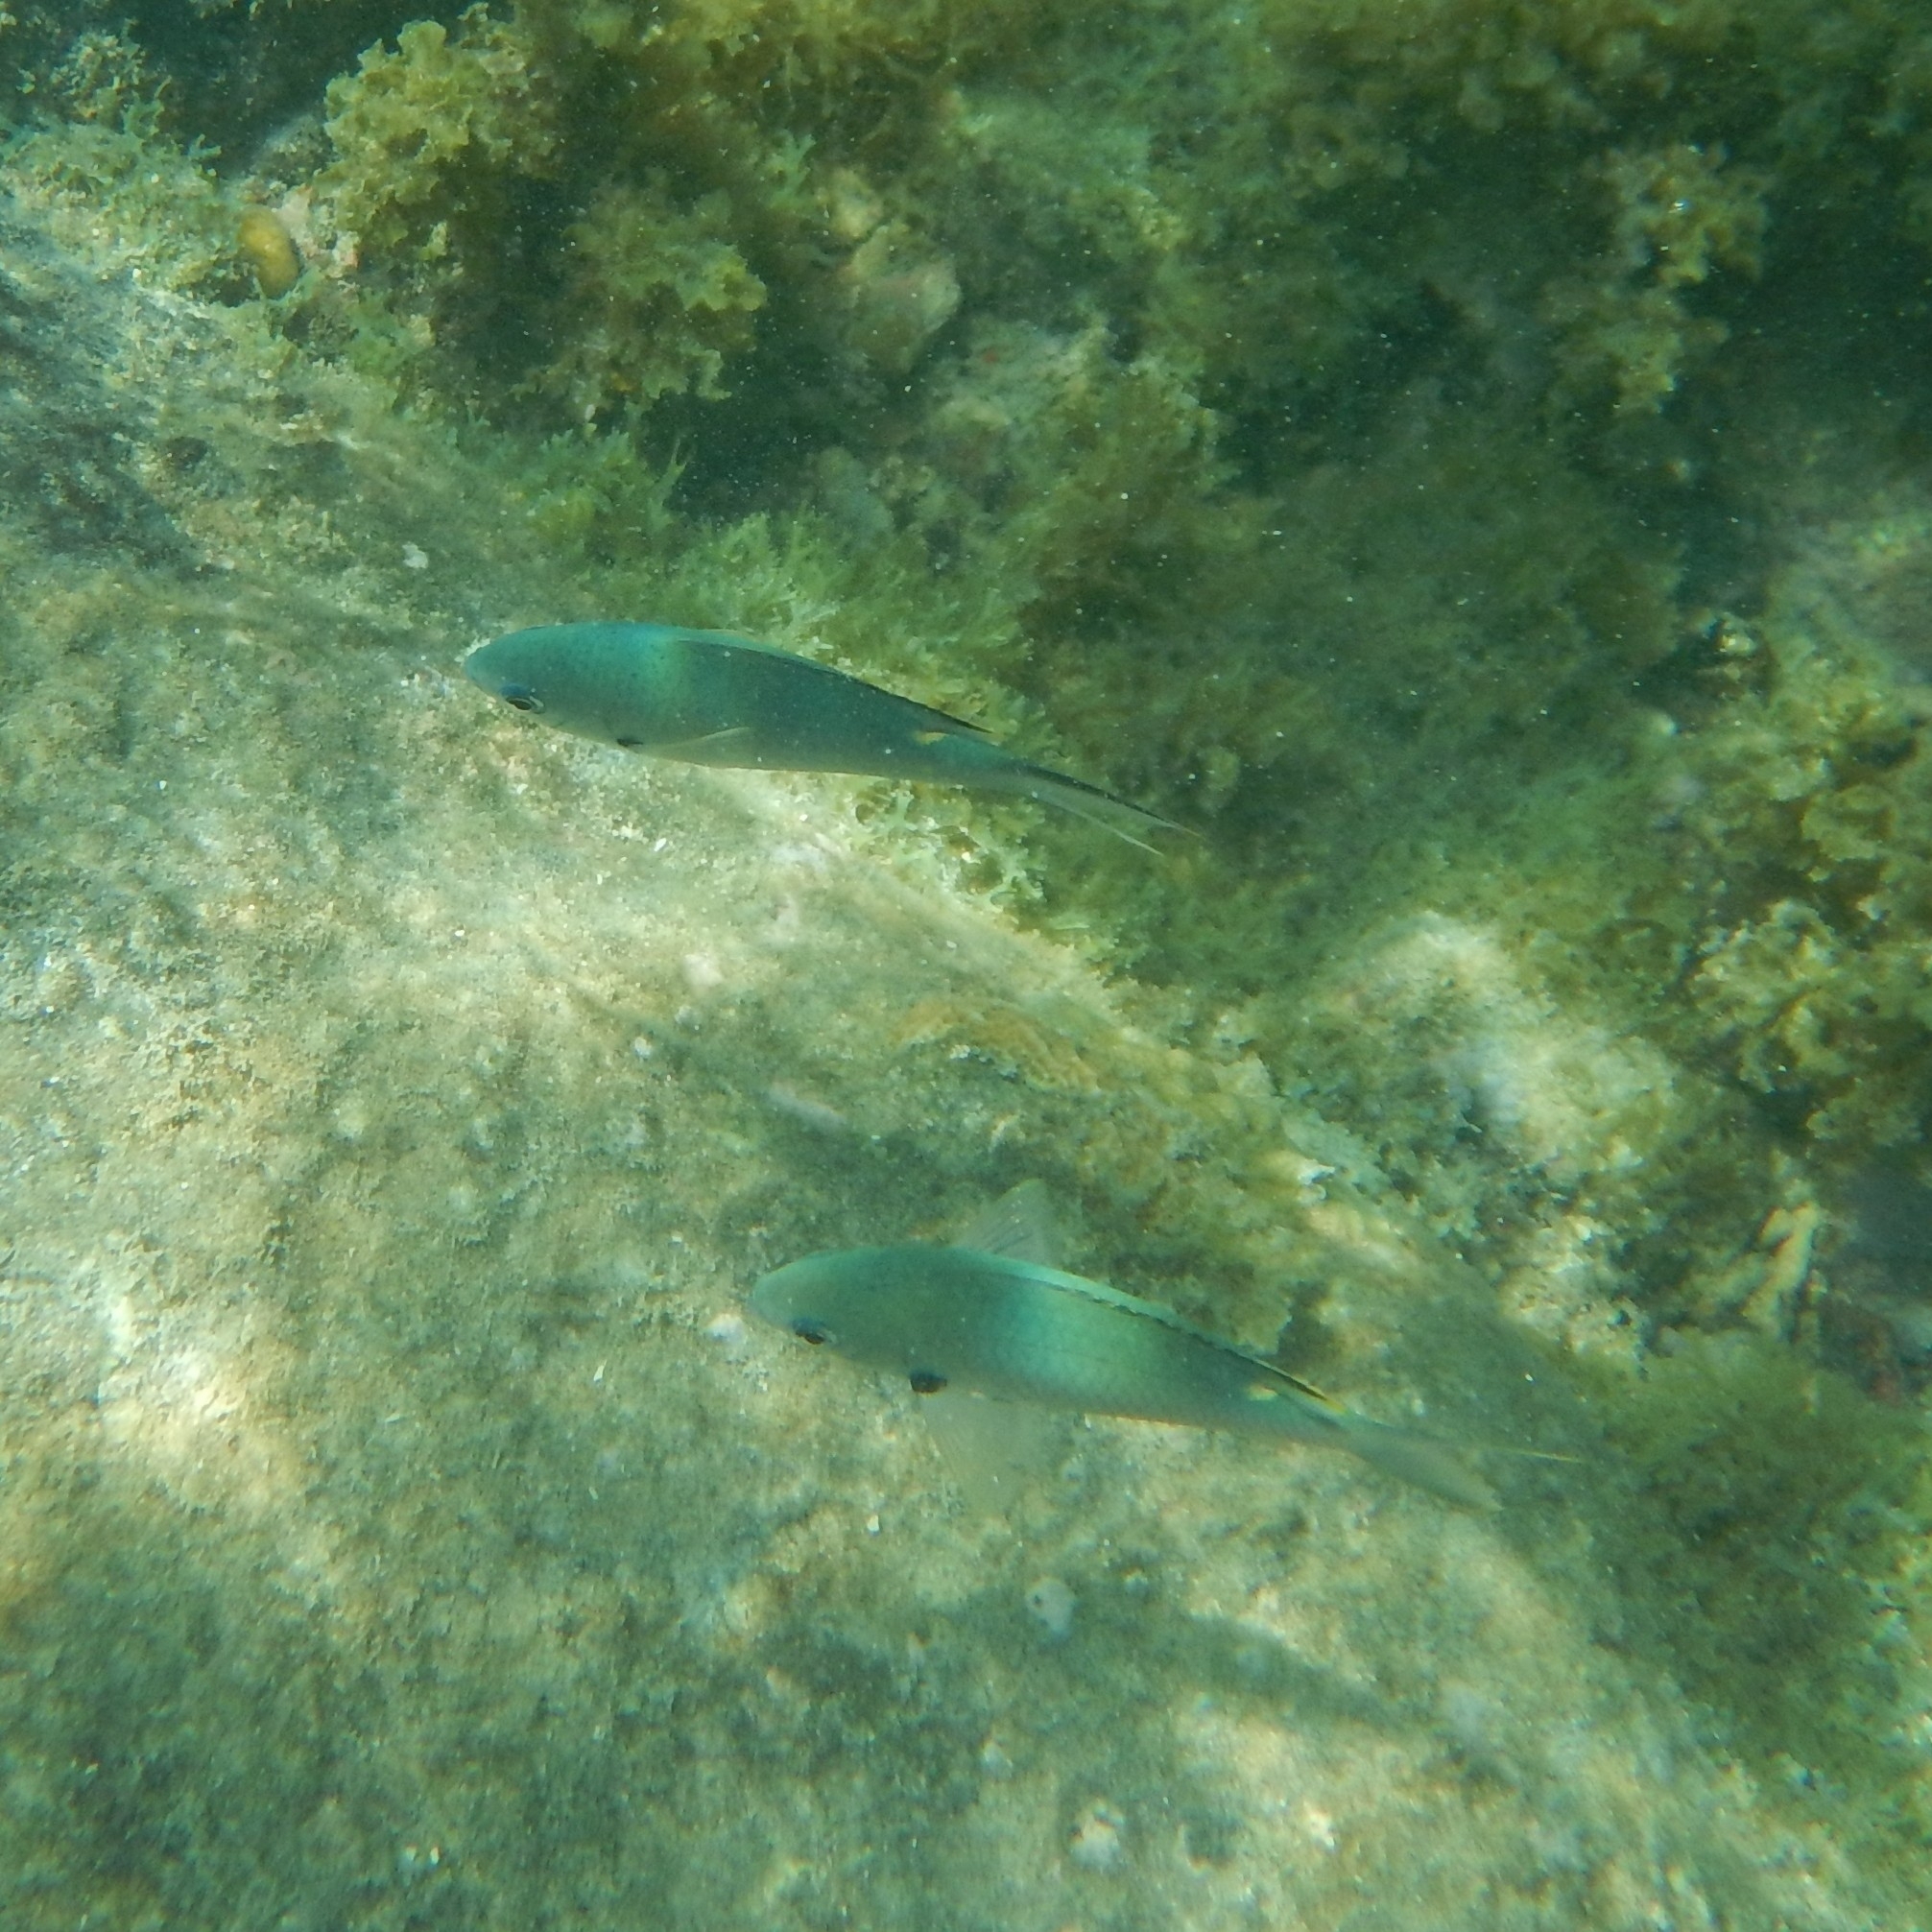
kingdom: Animalia
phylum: Chordata
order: Perciformes
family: Pomacentridae
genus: Chromis
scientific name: Chromis multilineata
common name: Brown chromis
